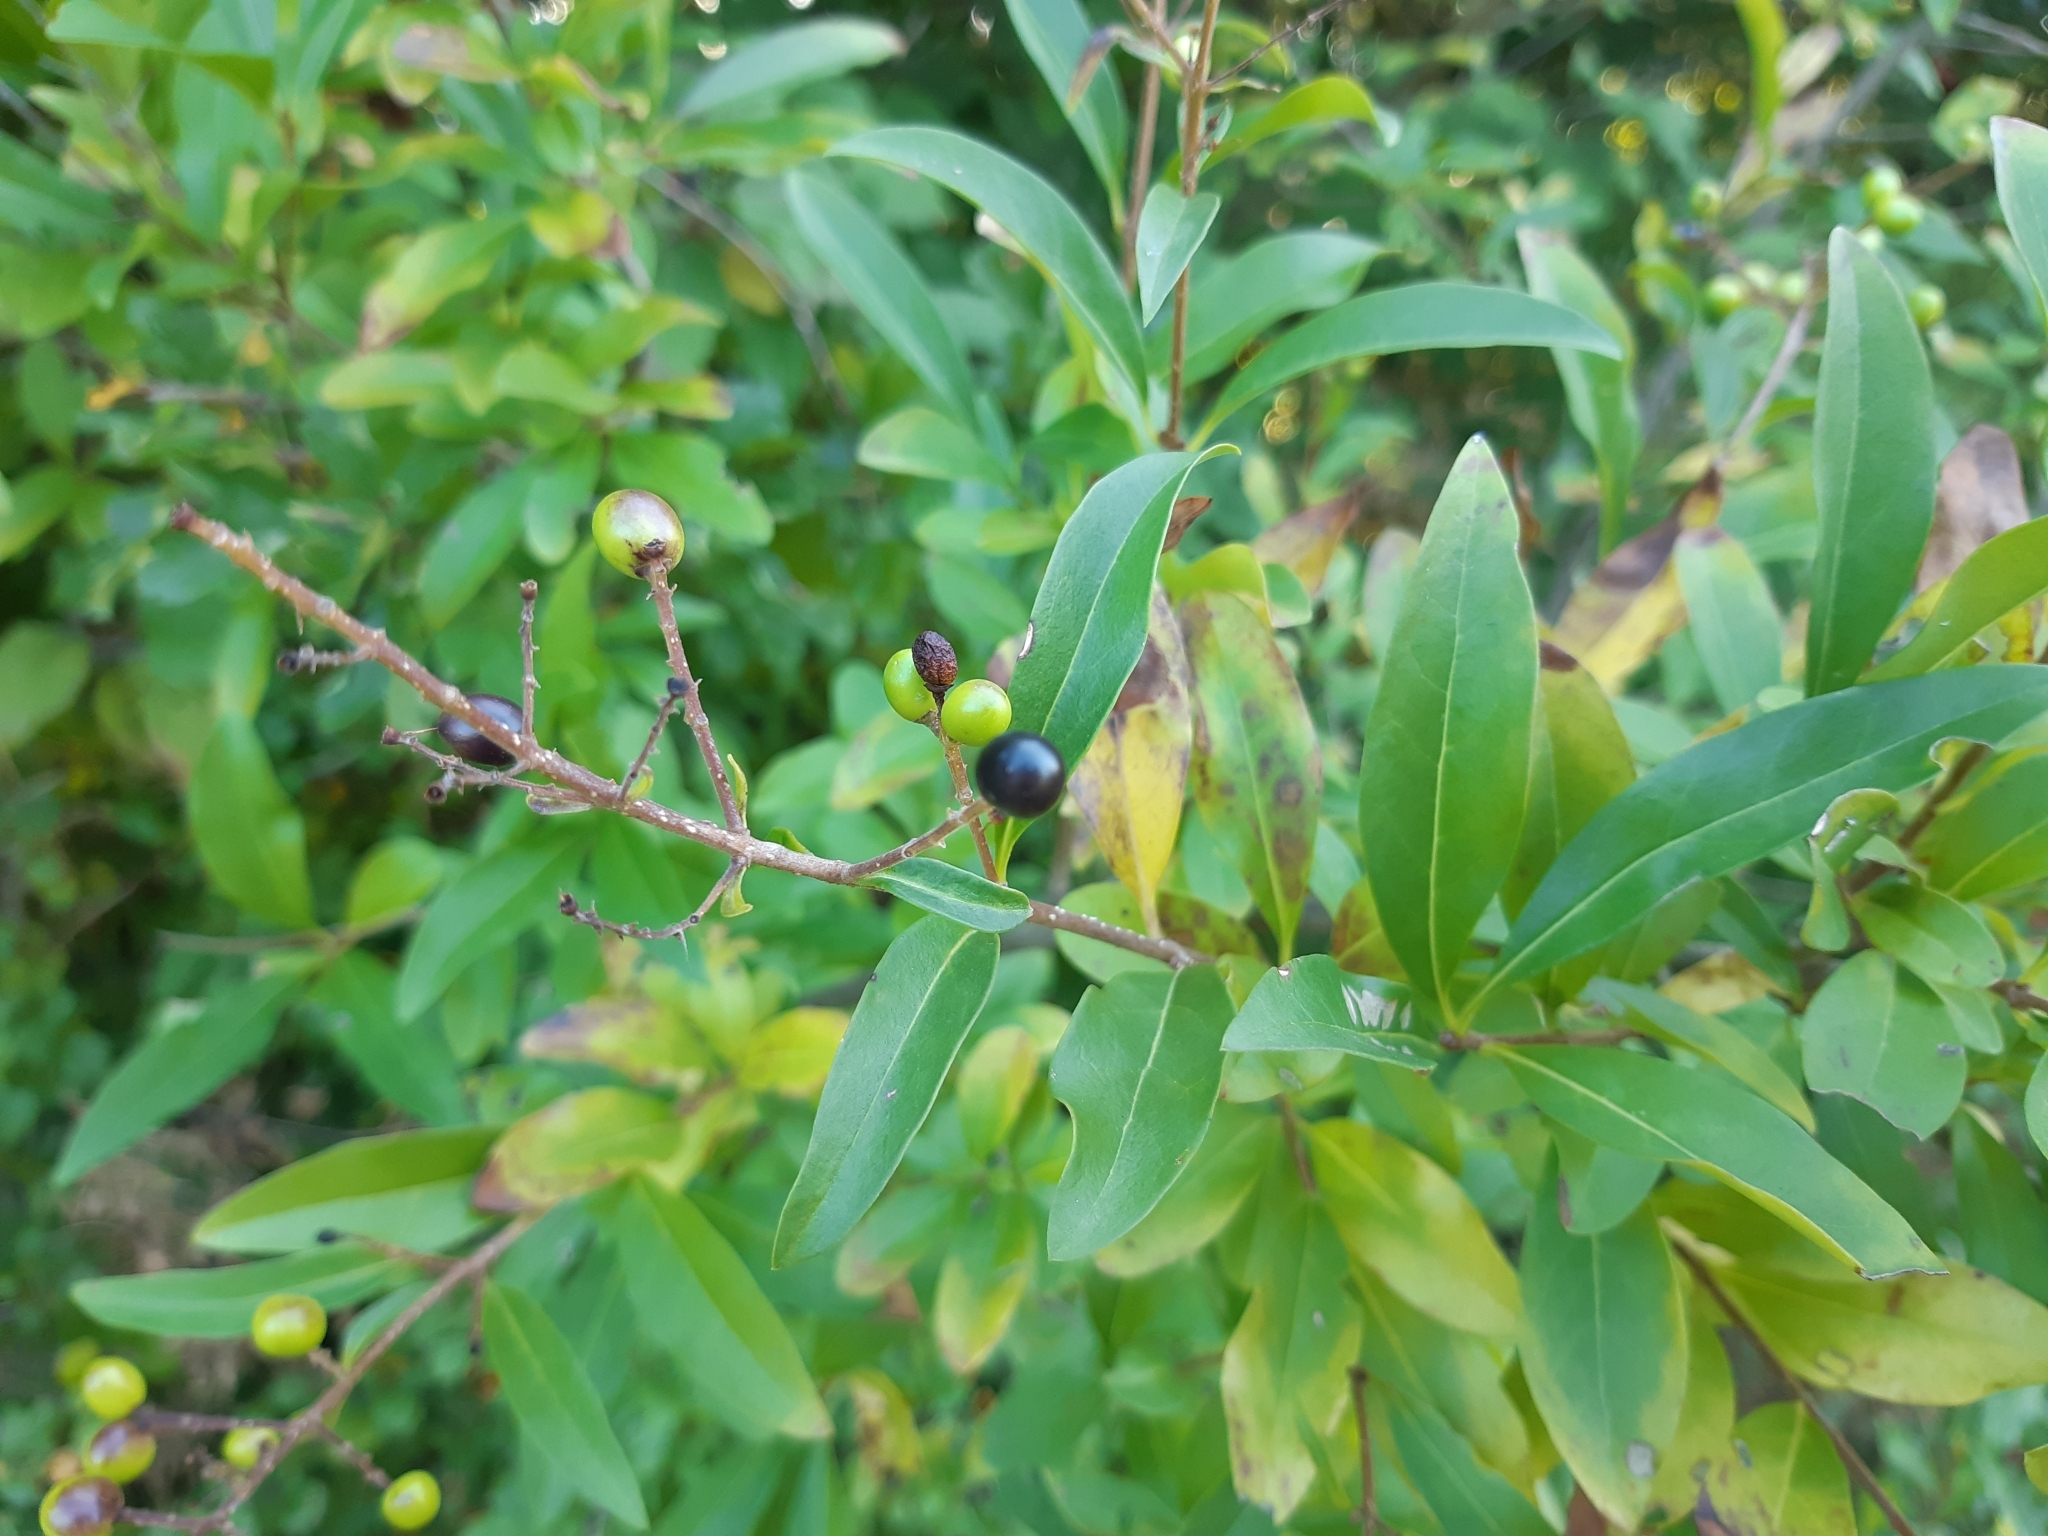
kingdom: Plantae
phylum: Tracheophyta
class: Magnoliopsida
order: Lamiales
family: Oleaceae
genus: Ligustrum
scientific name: Ligustrum vulgare
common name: Wild privet
